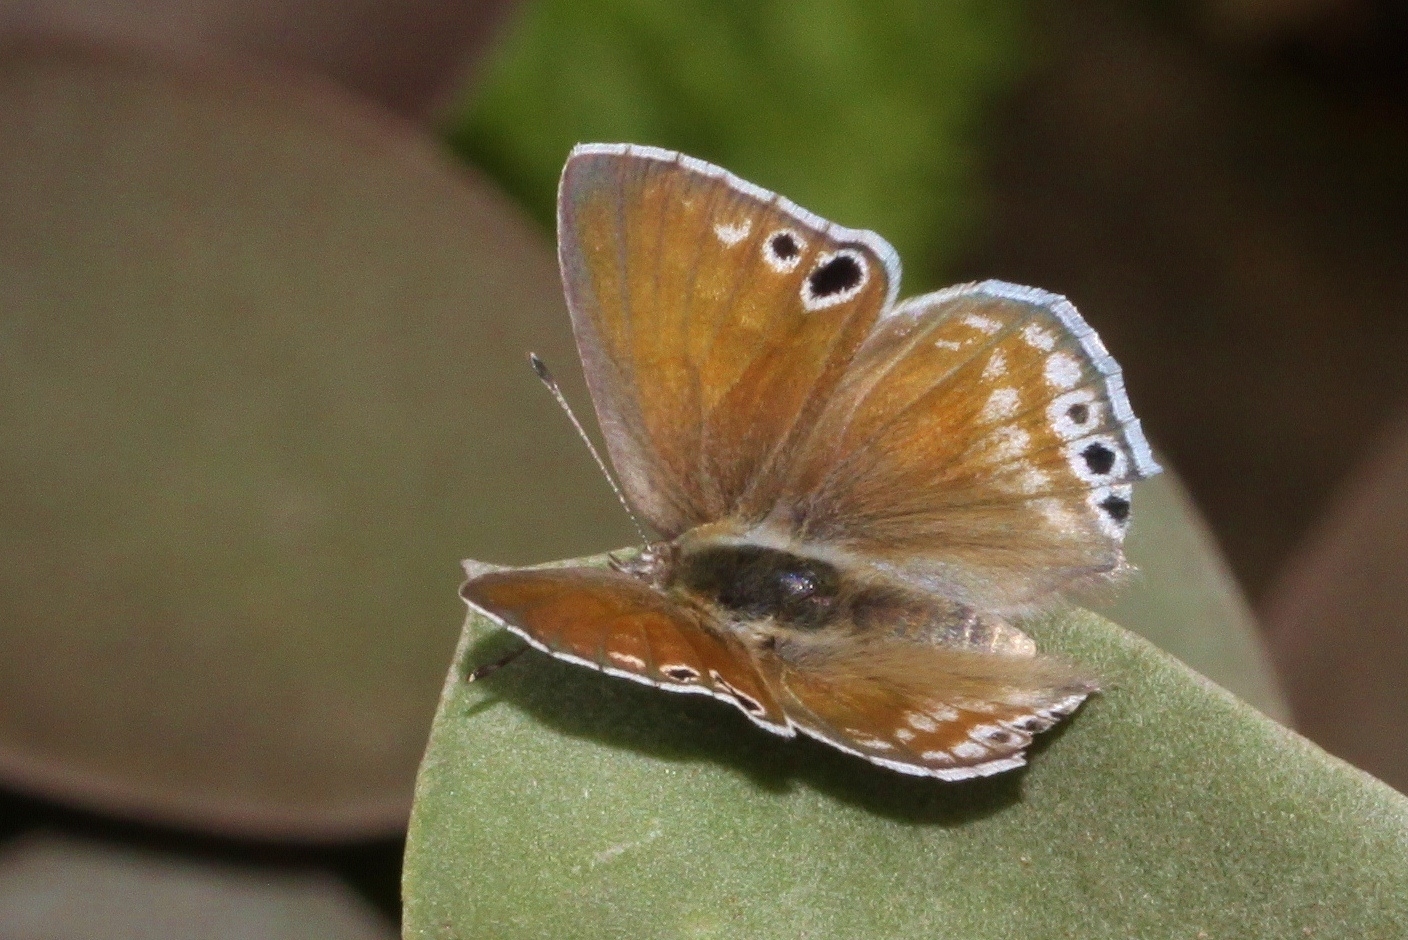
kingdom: Animalia
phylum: Arthropoda
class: Insecta
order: Lepidoptera
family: Lycaenidae
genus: Leptomyrina
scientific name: Leptomyrina gorgias
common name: Common black-eye
